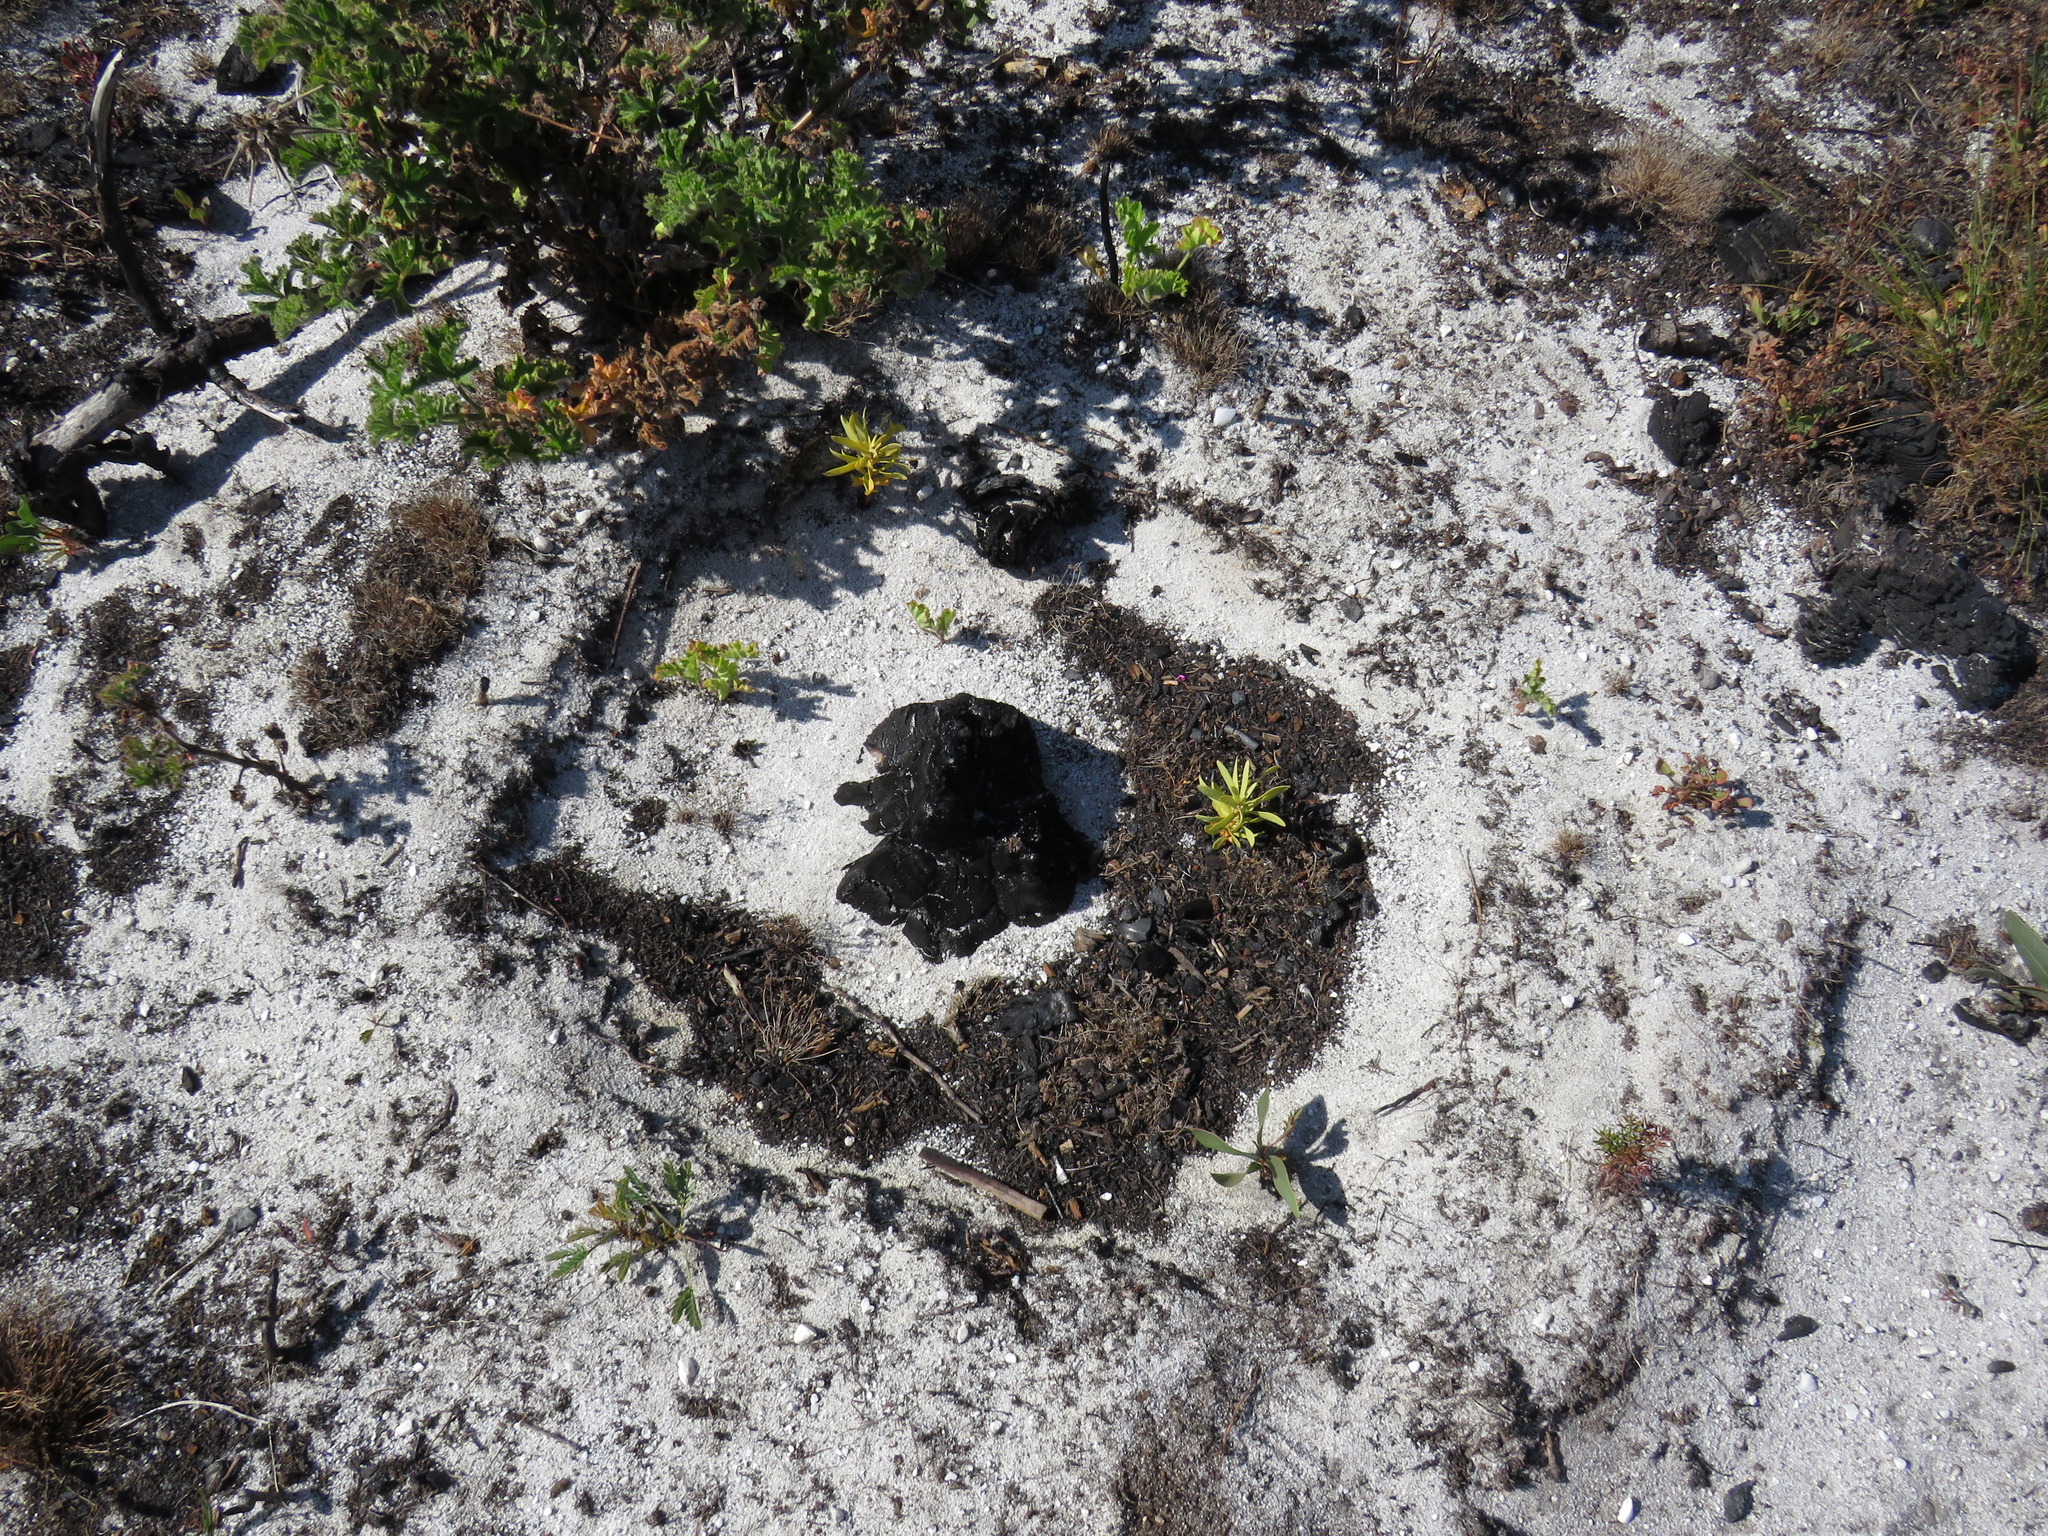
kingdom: Plantae
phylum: Tracheophyta
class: Magnoliopsida
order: Proteales
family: Proteaceae
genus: Protea
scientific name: Protea repens
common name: Sugarbush
